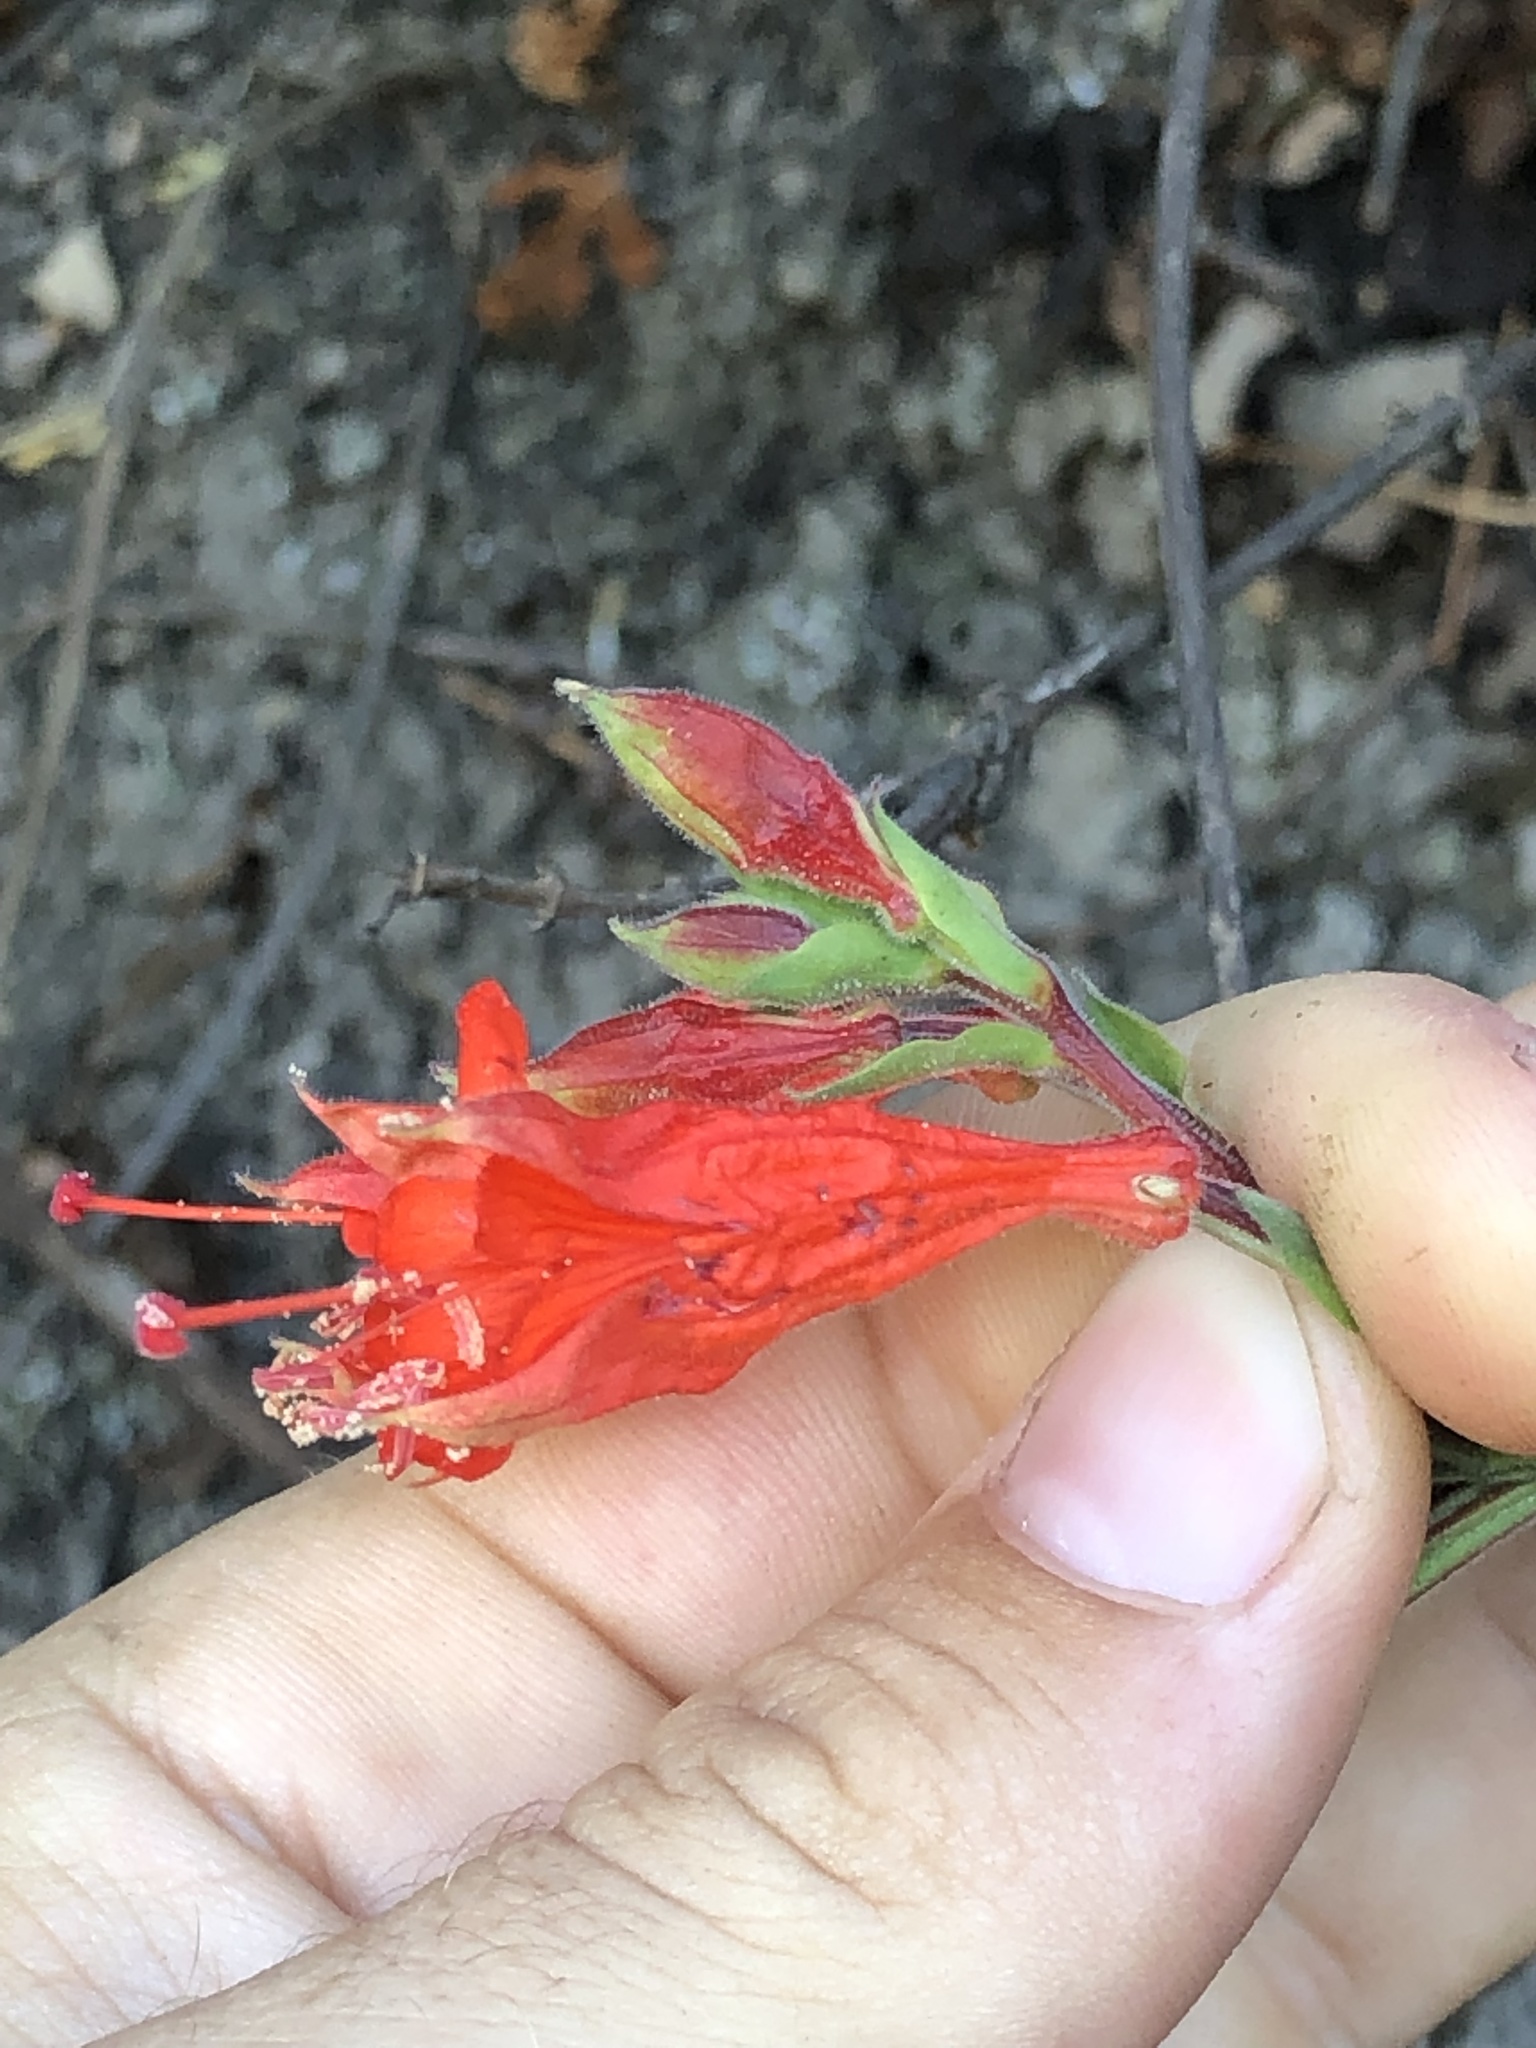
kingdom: Plantae
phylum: Tracheophyta
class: Magnoliopsida
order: Myrtales
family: Onagraceae
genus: Epilobium
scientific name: Epilobium canum
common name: California-fuchsia
